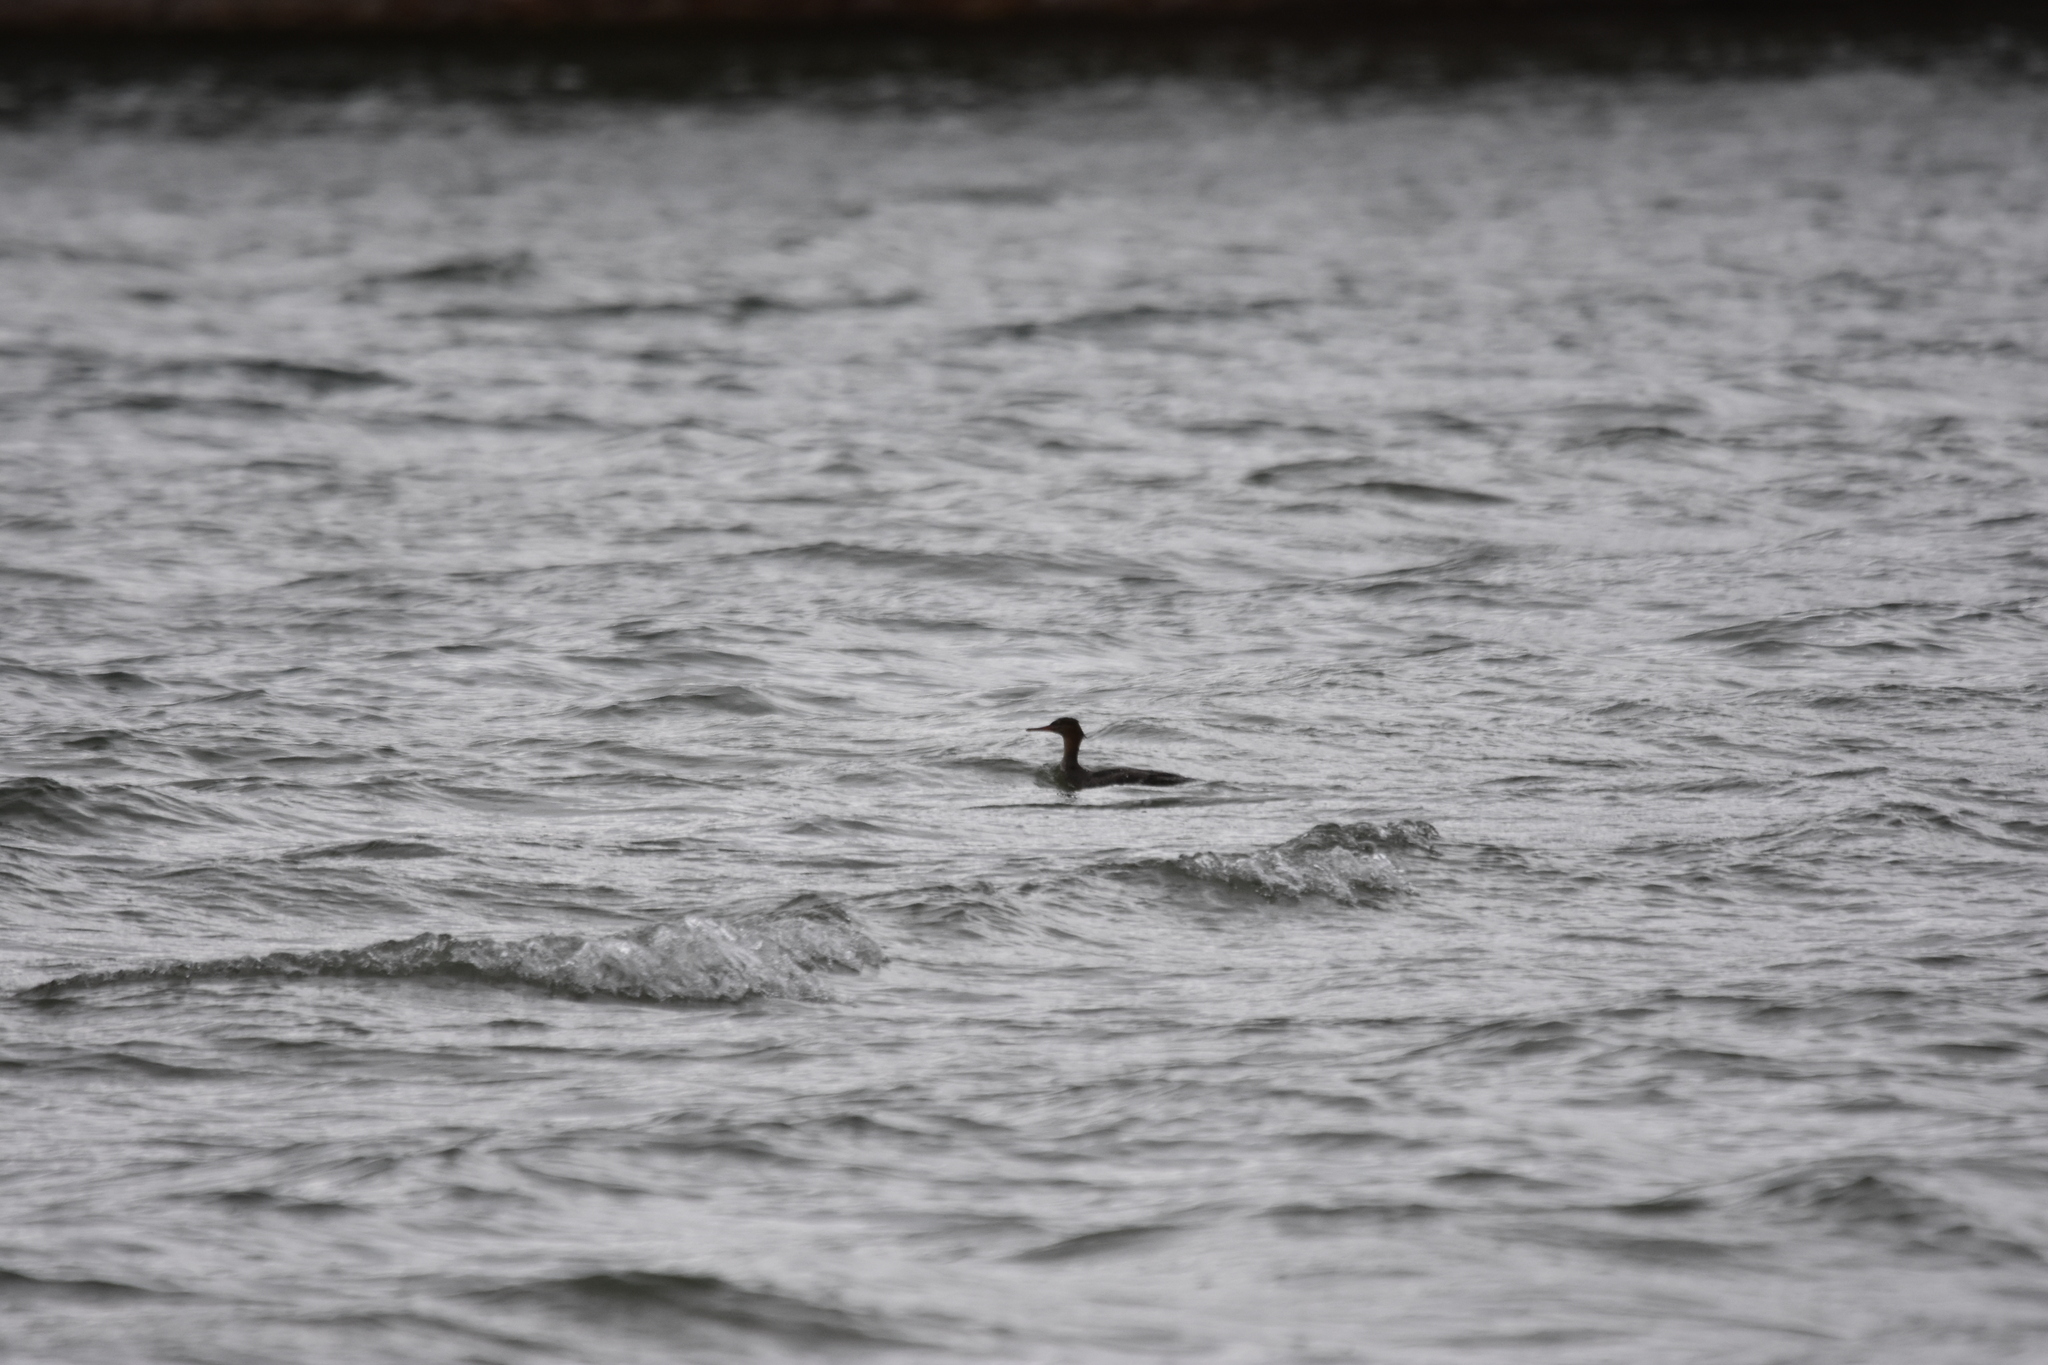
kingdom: Animalia
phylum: Chordata
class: Aves
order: Anseriformes
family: Anatidae
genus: Mergus
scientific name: Mergus serrator
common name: Red-breasted merganser
